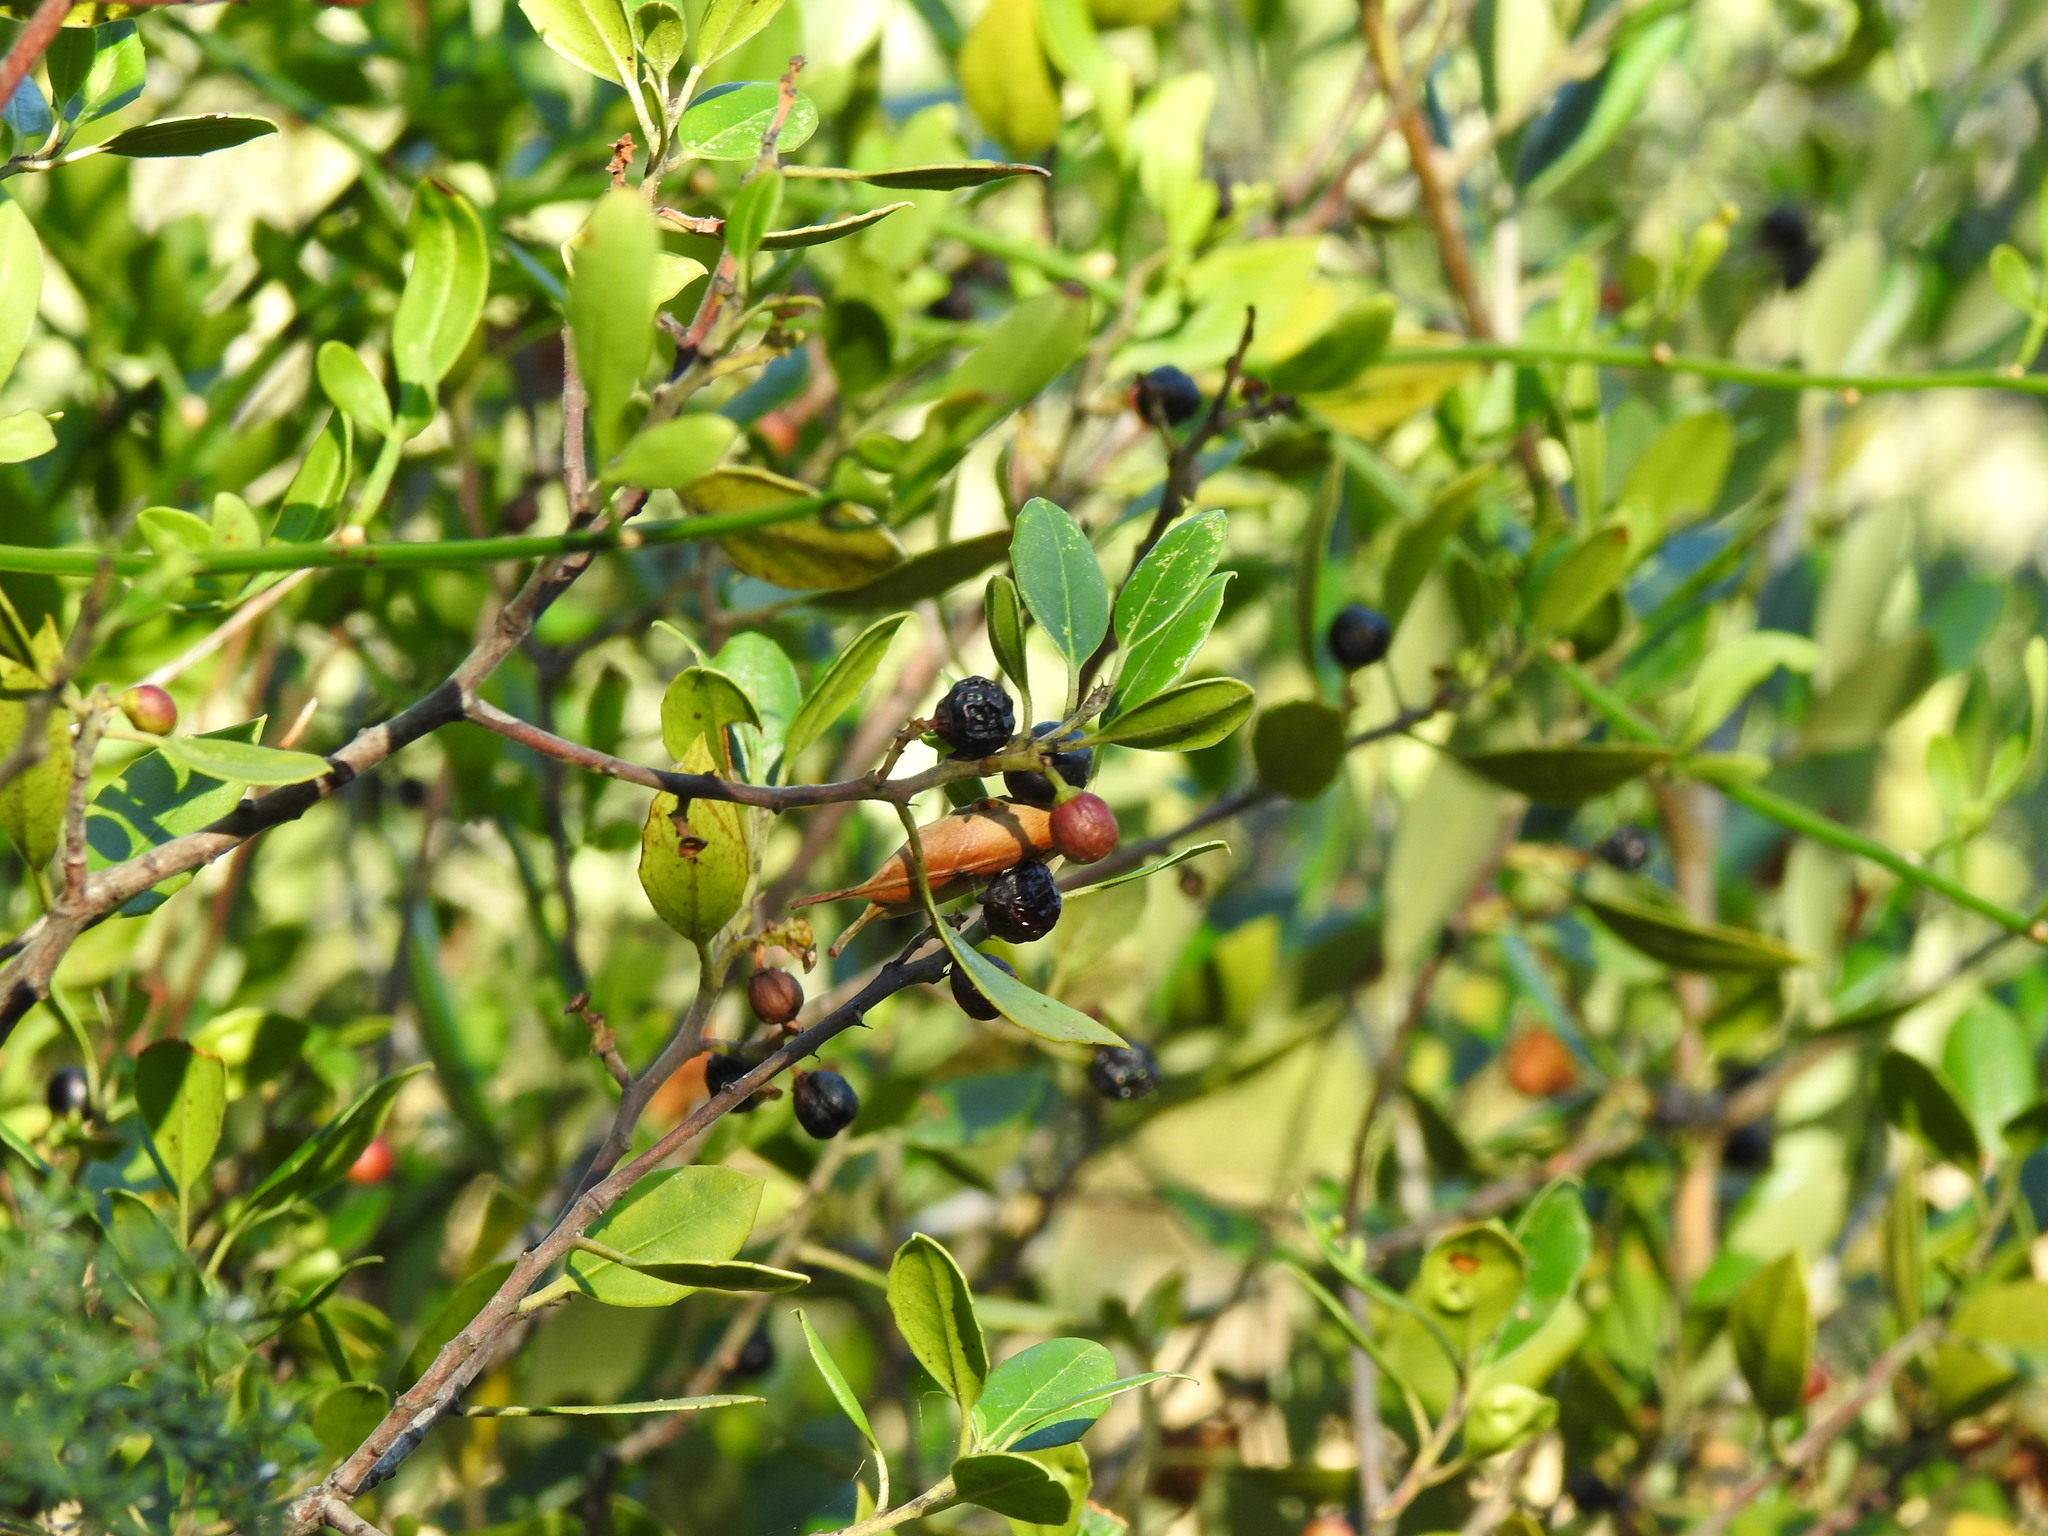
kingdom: Plantae
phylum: Tracheophyta
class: Magnoliopsida
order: Rosales
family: Rhamnaceae
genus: Rhamnus
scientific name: Rhamnus alaternus
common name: Mediterranean buckthorn
